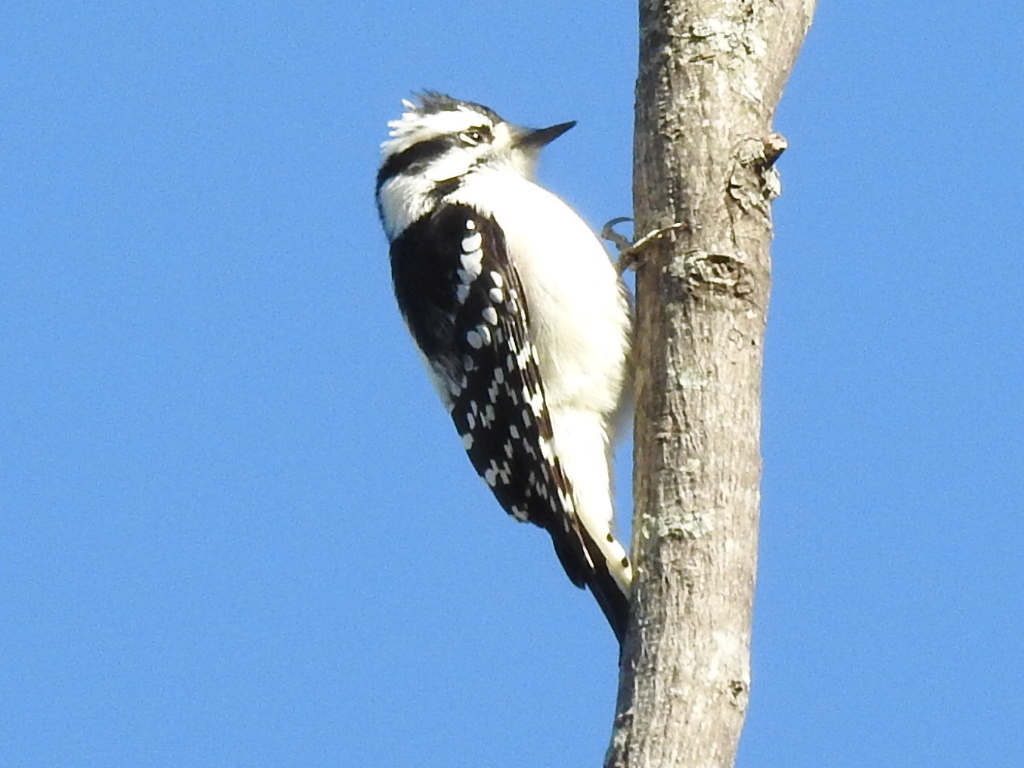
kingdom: Animalia
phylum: Chordata
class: Aves
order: Piciformes
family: Picidae
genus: Dryobates
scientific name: Dryobates pubescens
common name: Downy woodpecker
